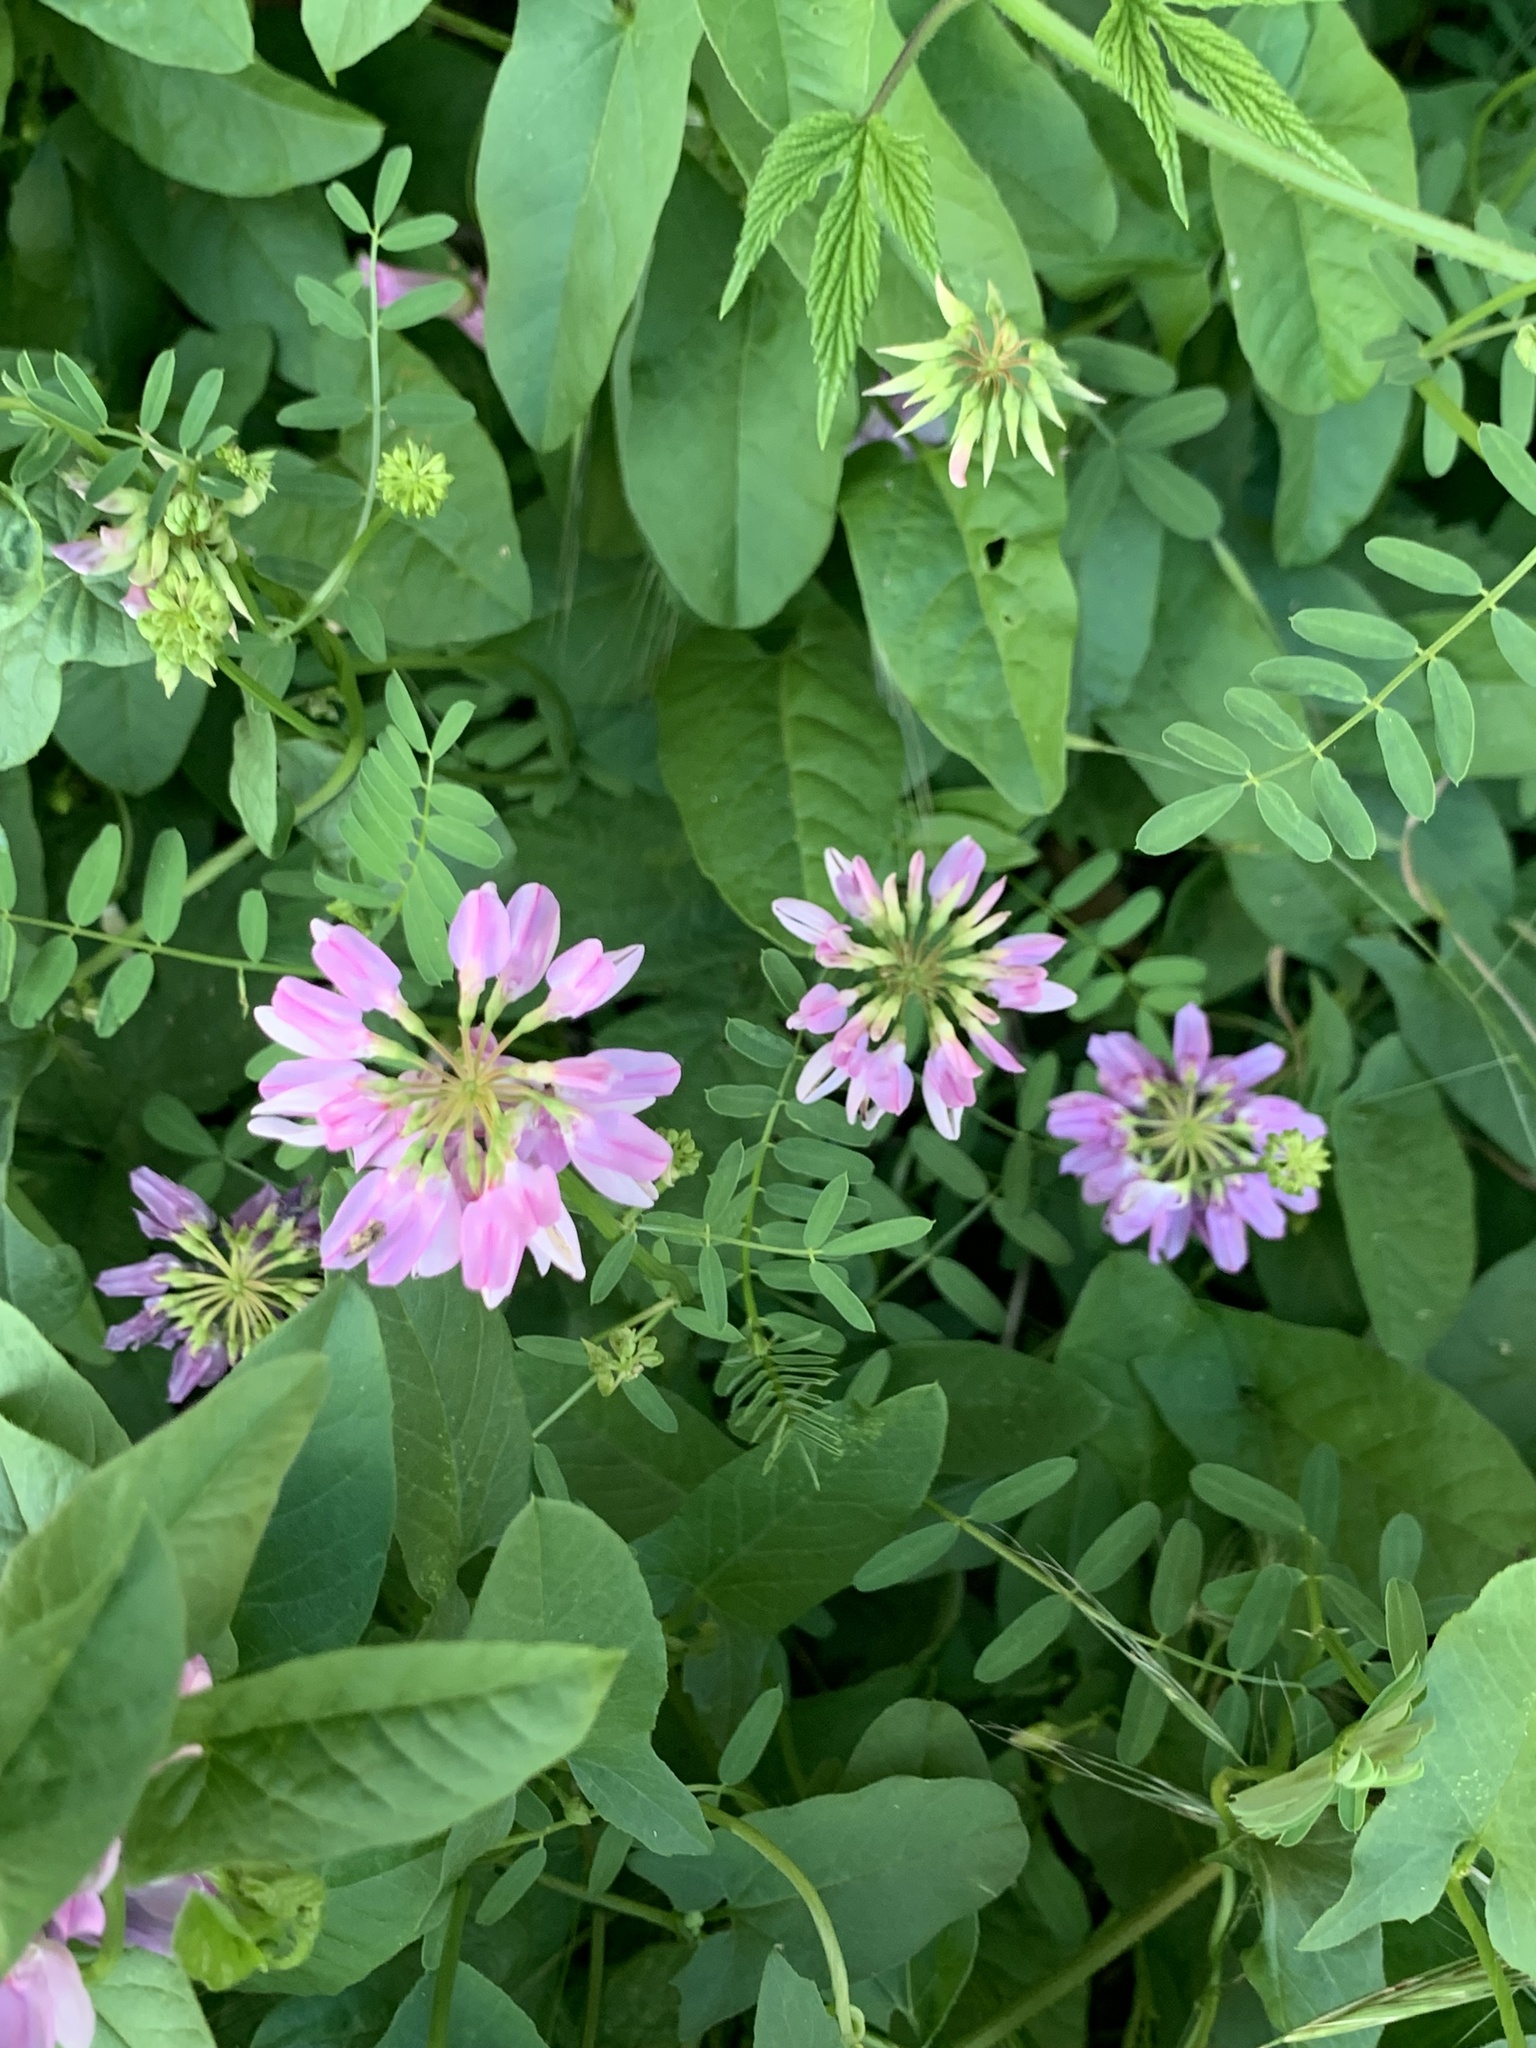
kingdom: Plantae
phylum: Tracheophyta
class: Magnoliopsida
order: Fabales
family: Fabaceae
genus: Coronilla
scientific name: Coronilla varia
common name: Crownvetch
